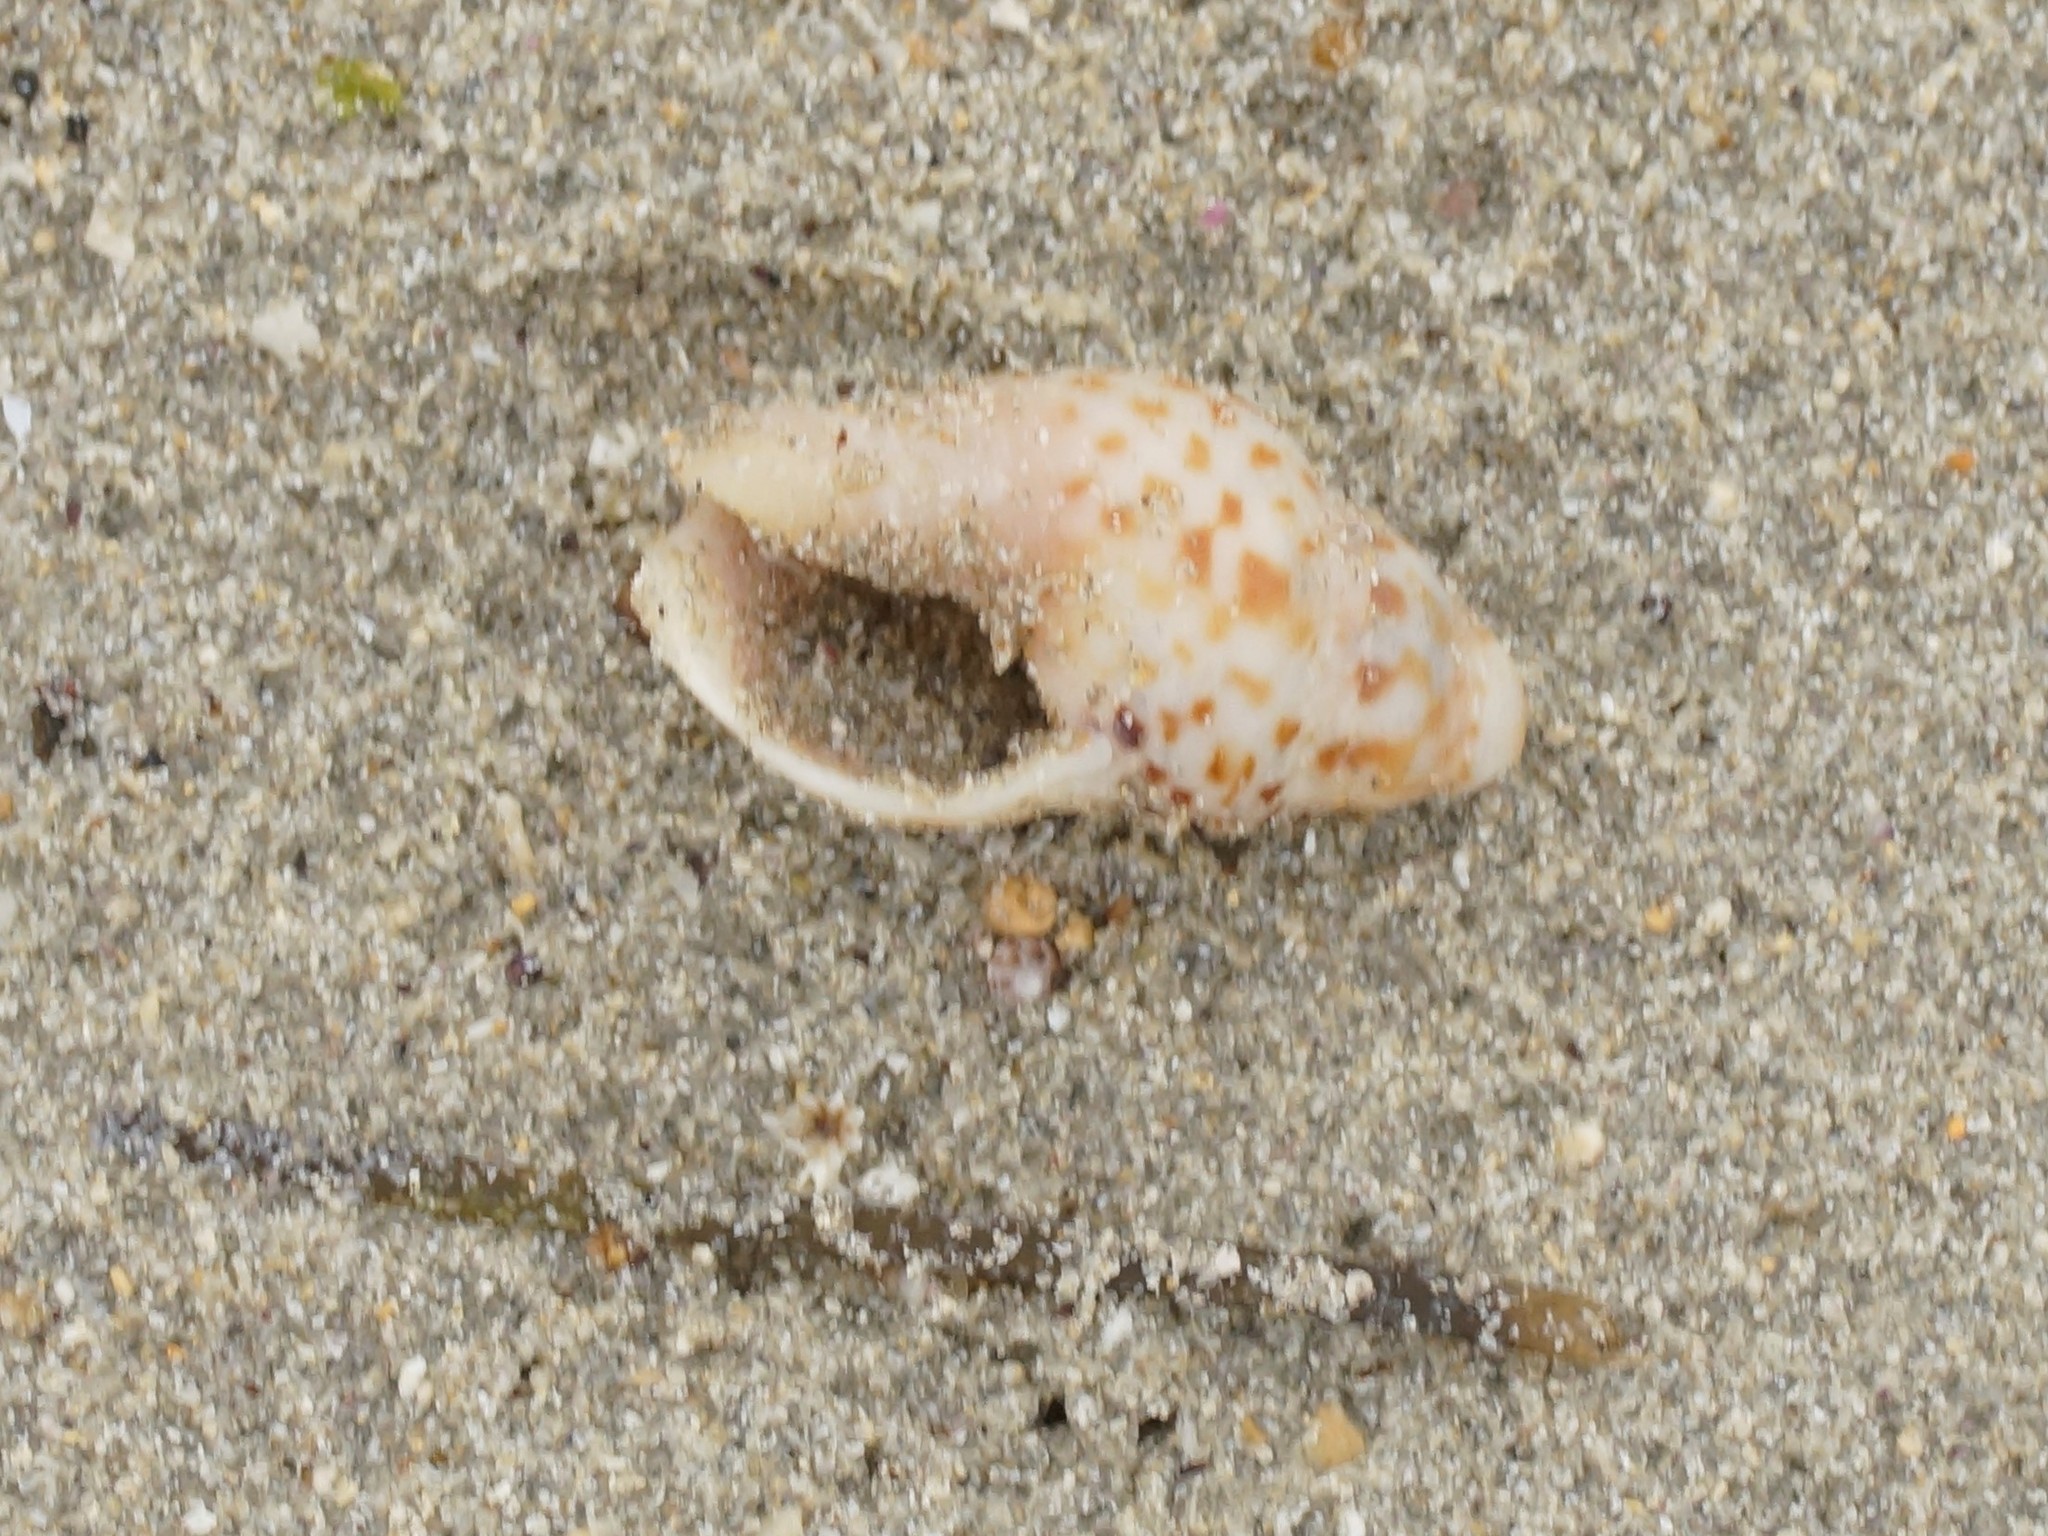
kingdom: Animalia
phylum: Mollusca
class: Gastropoda
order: Neogastropoda
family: Cominellidae
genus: Cominella
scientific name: Cominella lineolata
